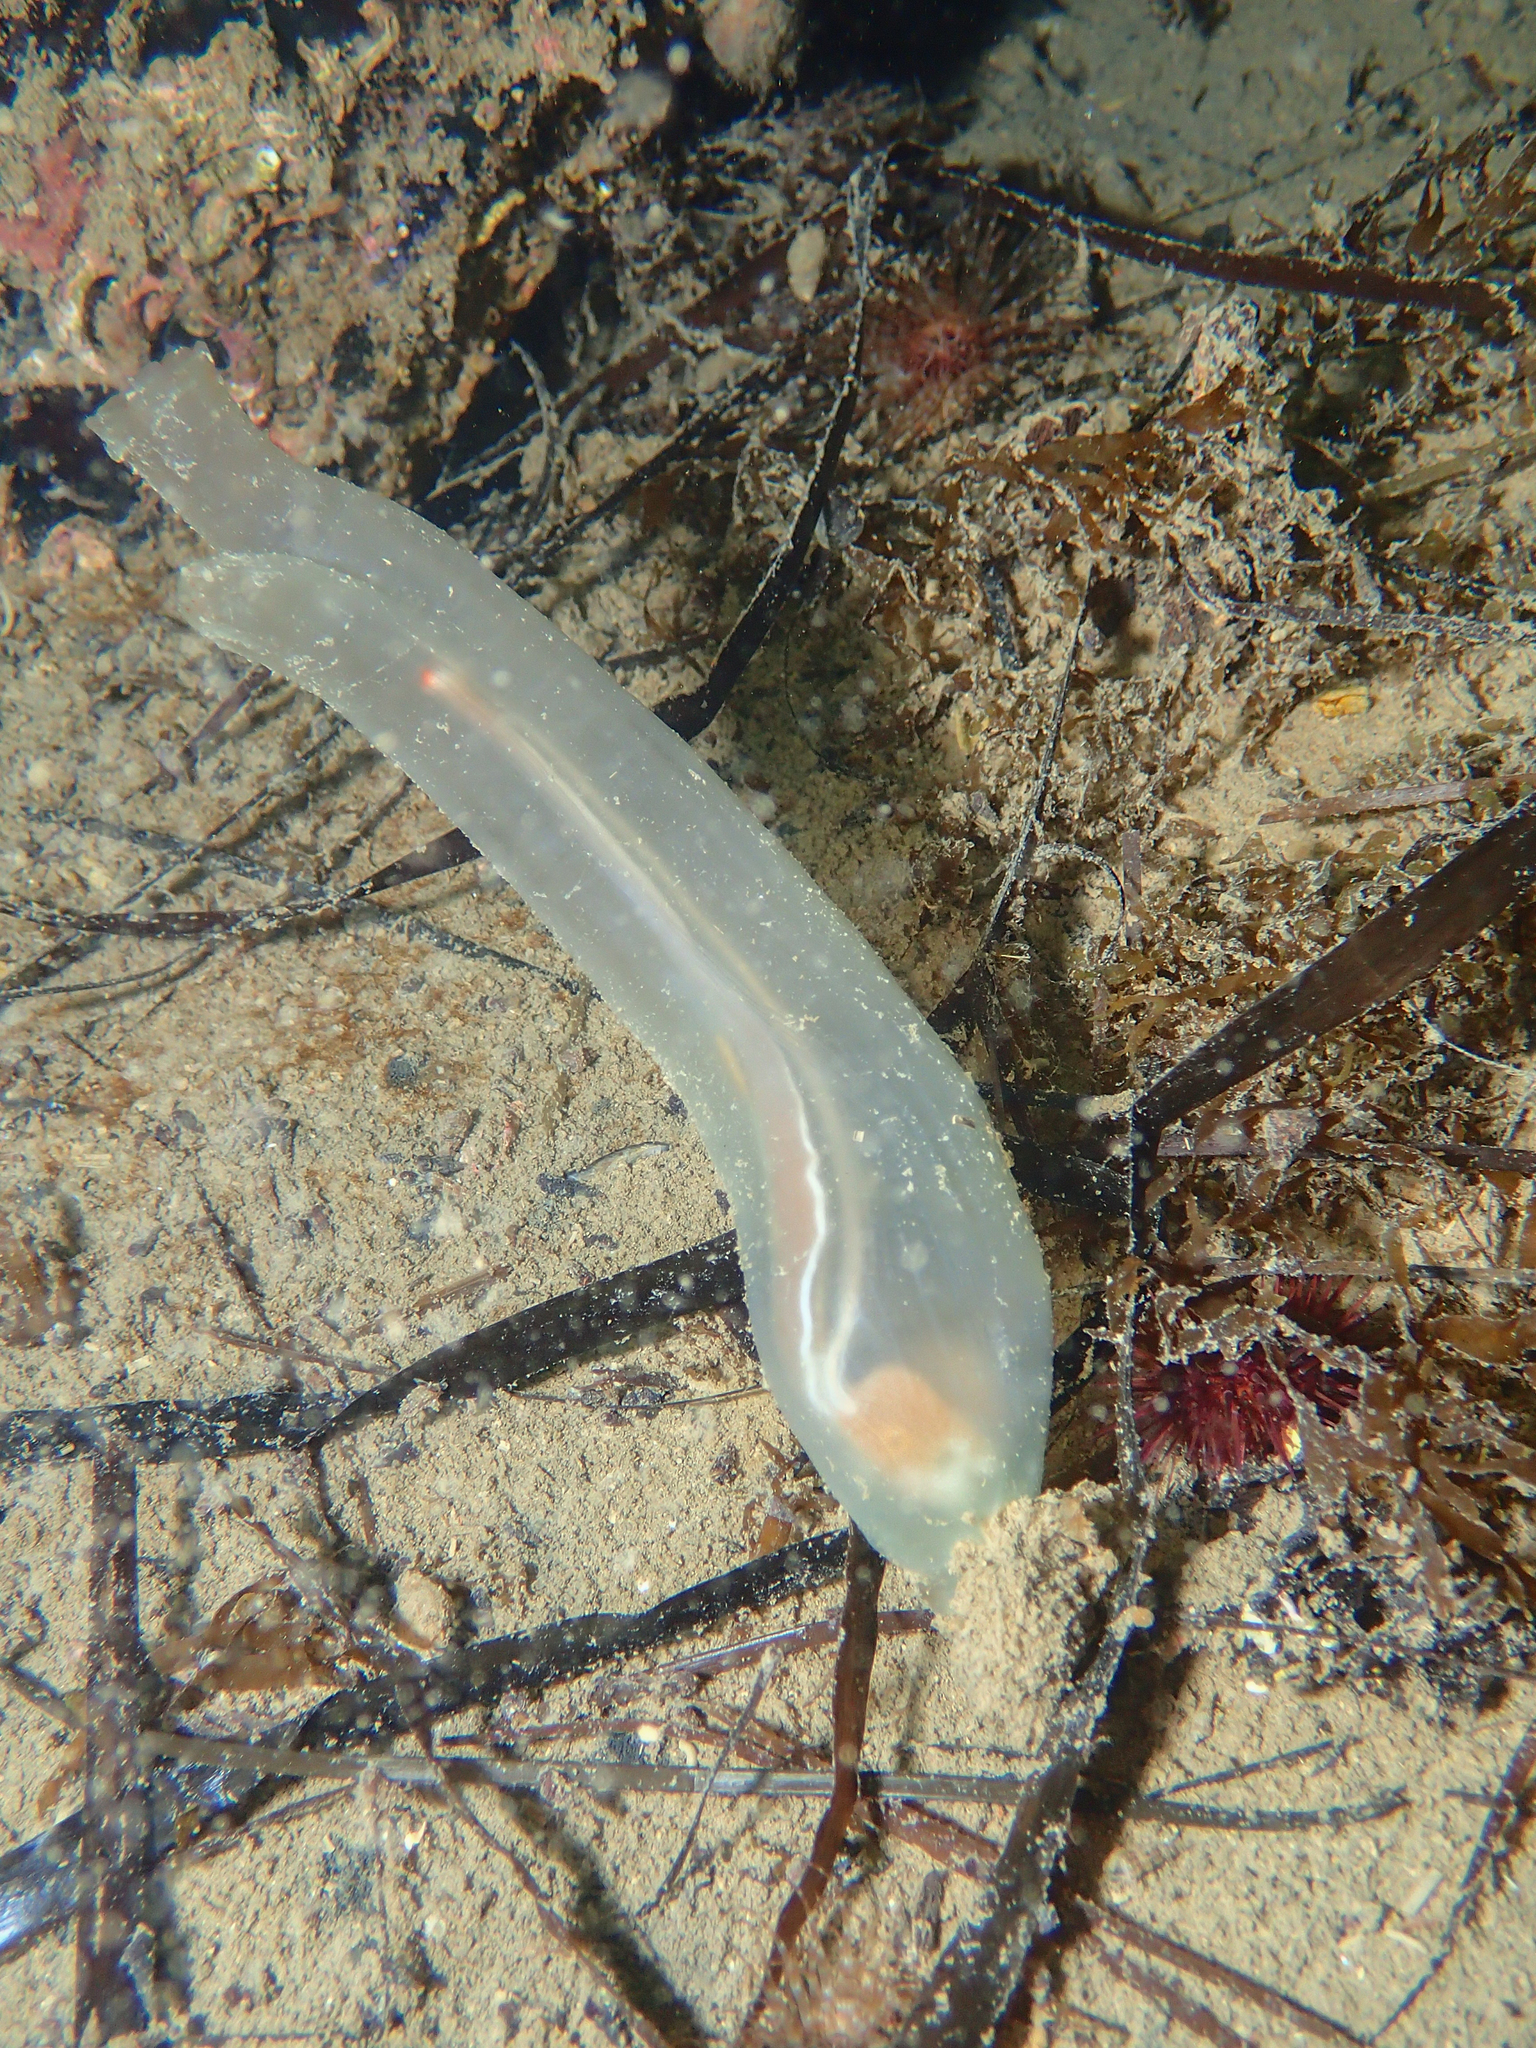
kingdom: Animalia
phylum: Chordata
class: Ascidiacea
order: Phlebobranchia
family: Cionidae
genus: Ciona
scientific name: Ciona robusta
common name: Tunicate
